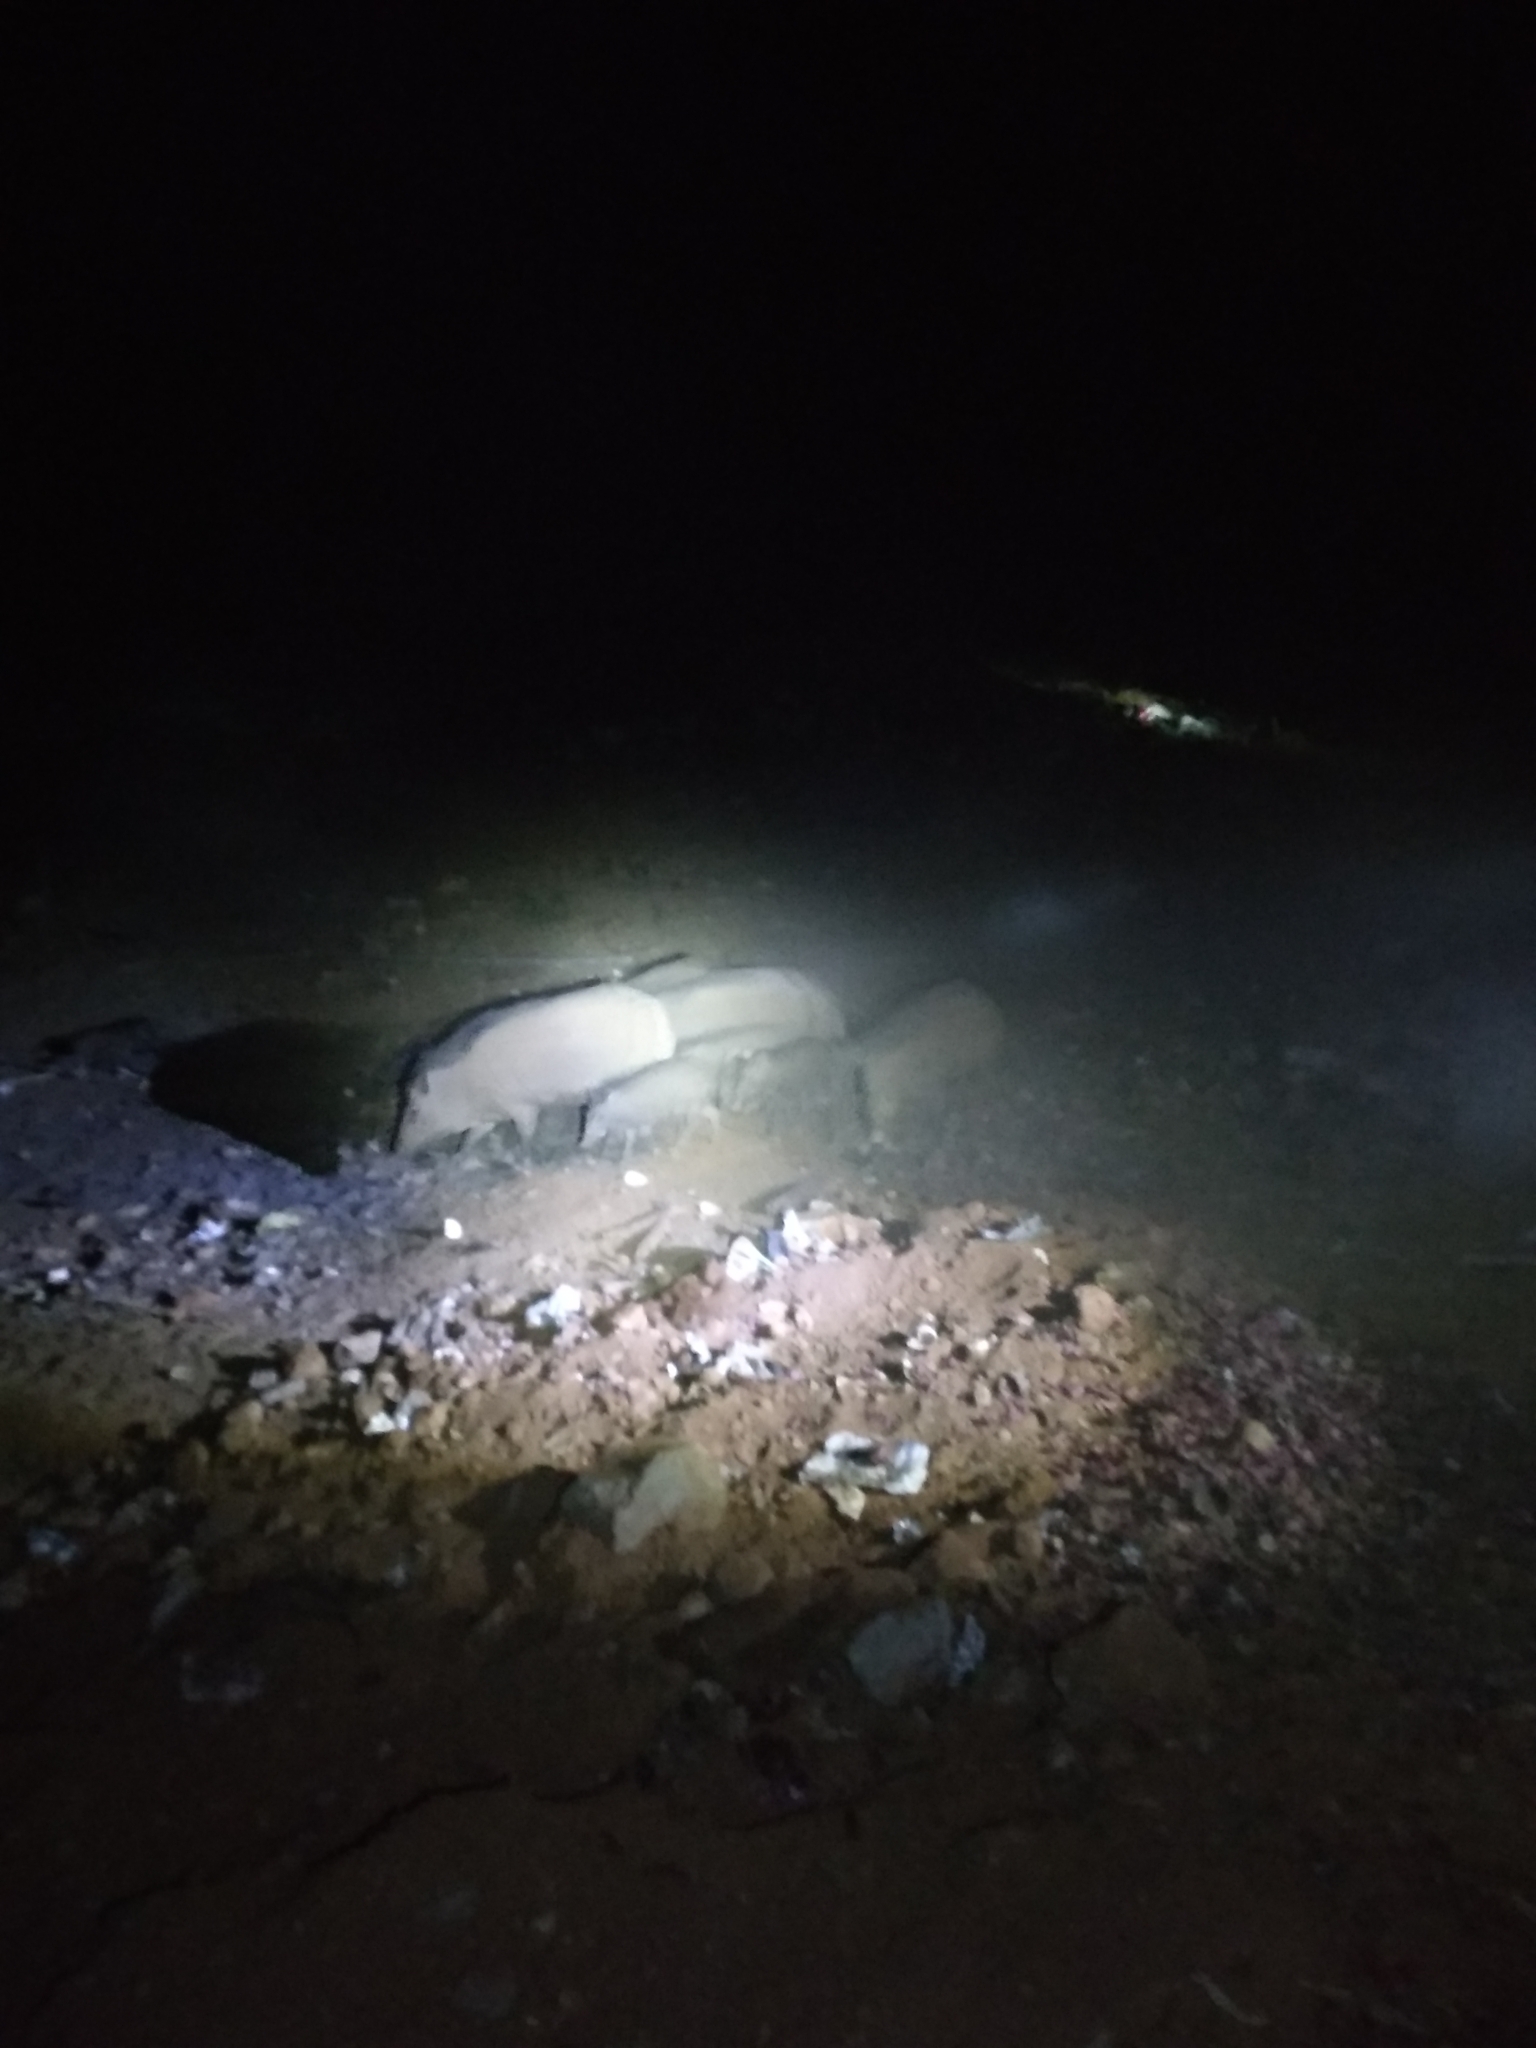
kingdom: Animalia
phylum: Chordata
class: Mammalia
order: Artiodactyla
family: Suidae
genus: Sus
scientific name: Sus scrofa
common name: Wild boar
